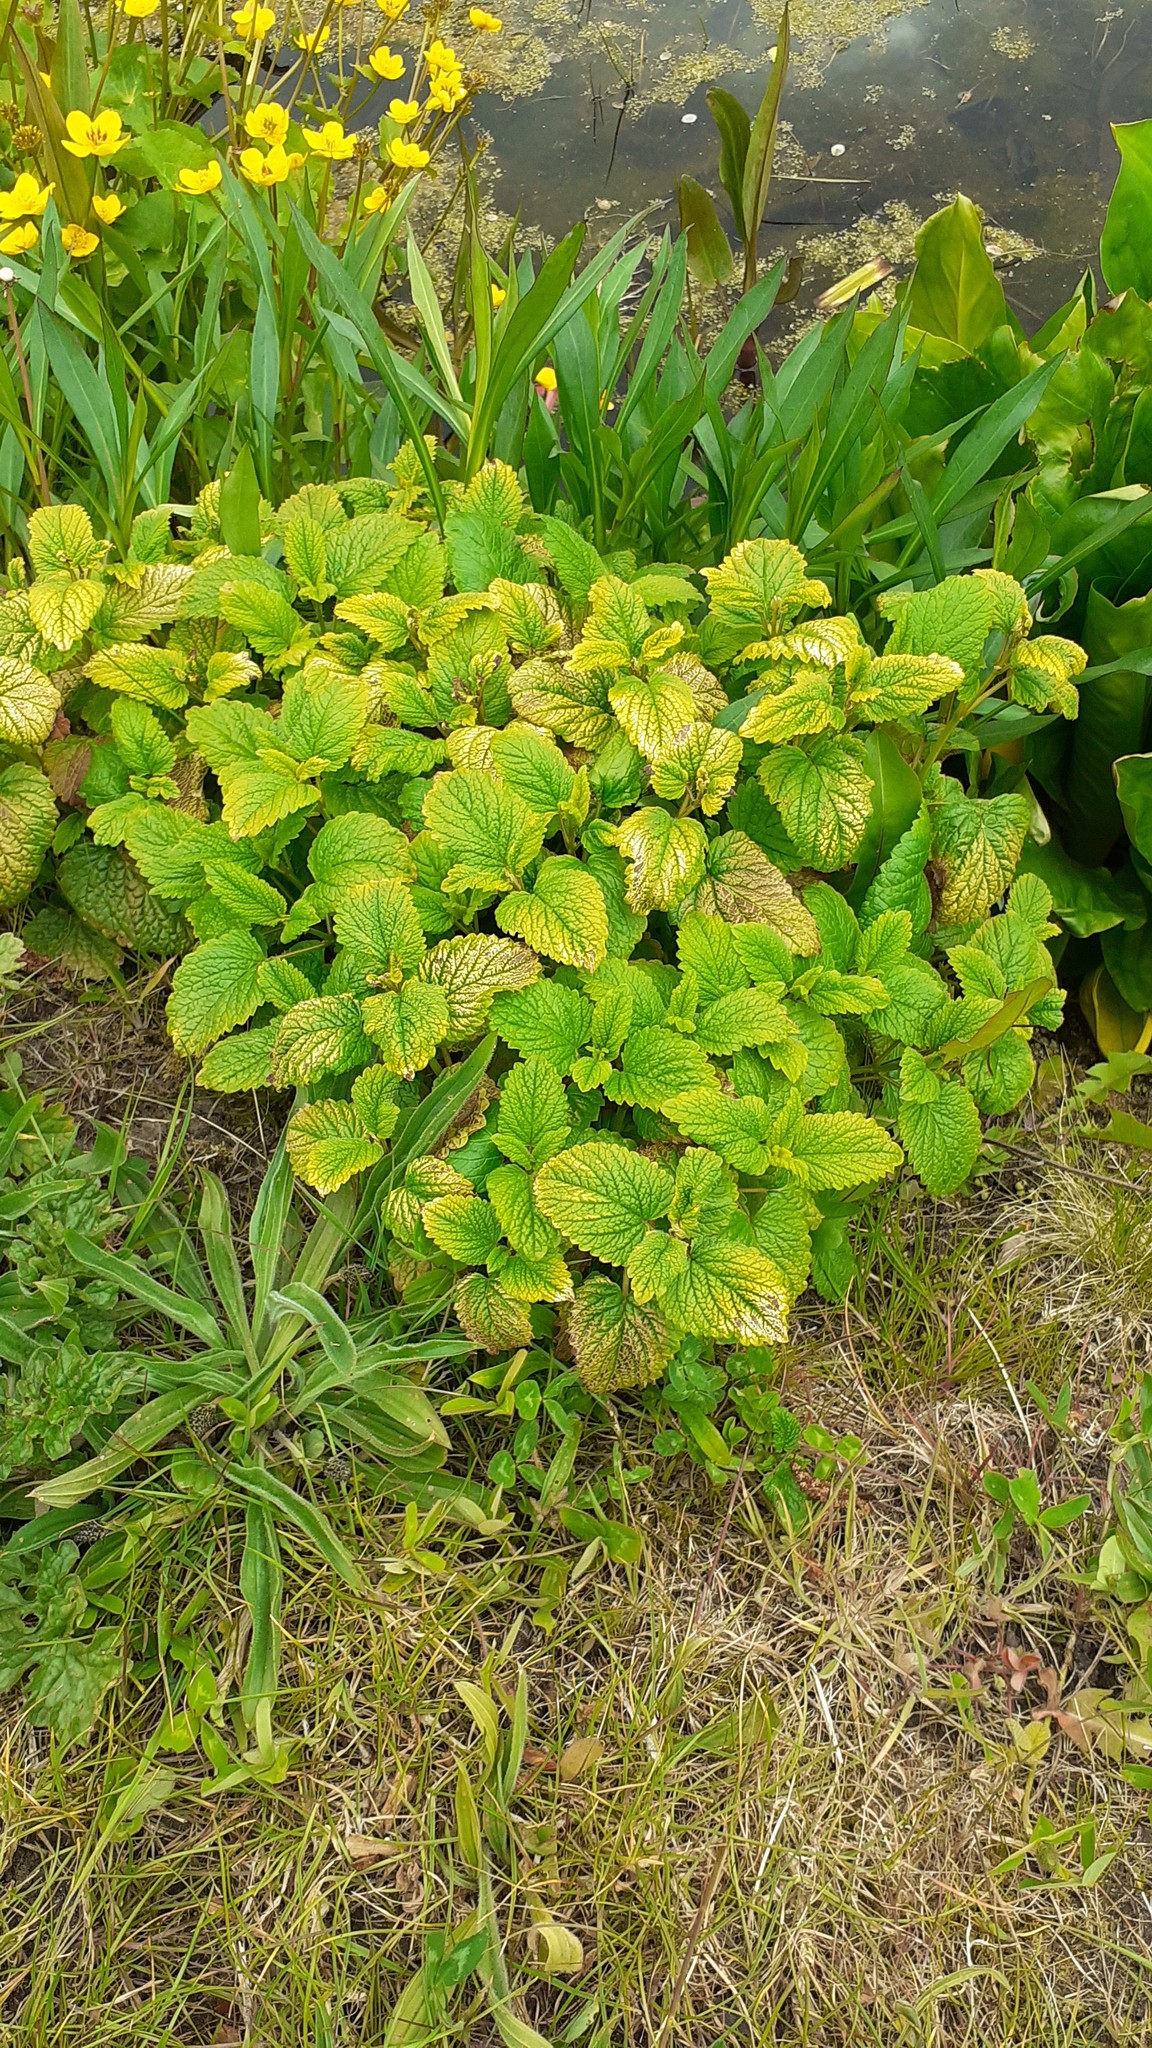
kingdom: Plantae
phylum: Tracheophyta
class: Magnoliopsida
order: Lamiales
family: Lamiaceae
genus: Melissa
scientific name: Melissa officinalis
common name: Balm
